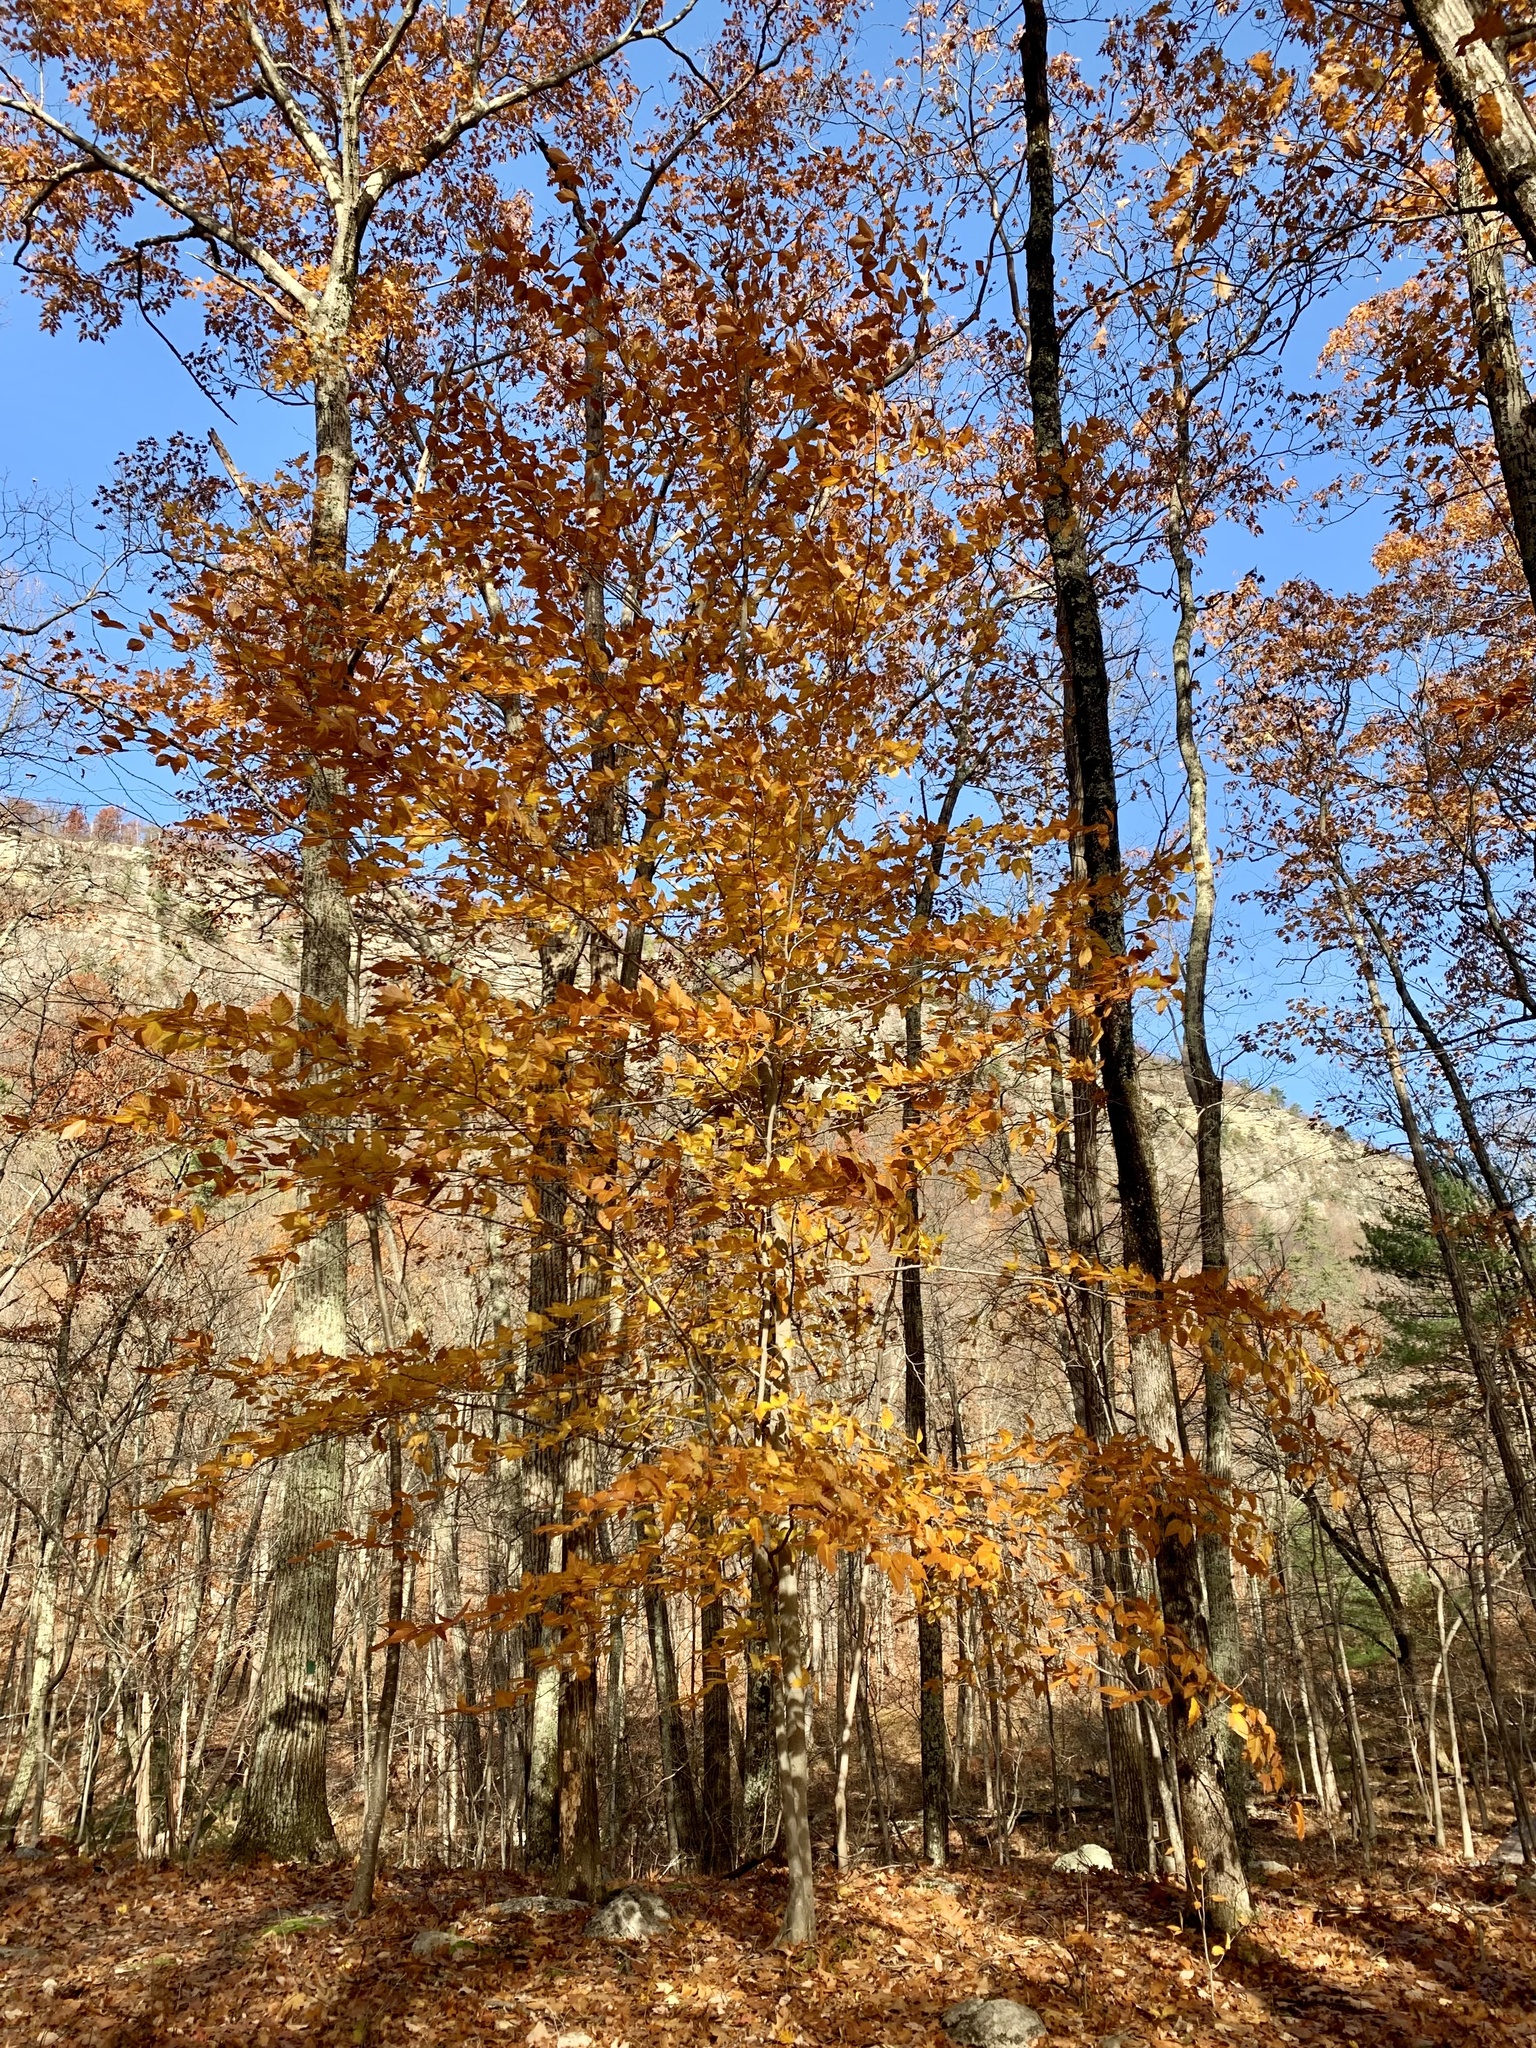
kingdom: Plantae
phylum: Tracheophyta
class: Magnoliopsida
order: Fagales
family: Fagaceae
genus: Fagus
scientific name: Fagus grandifolia
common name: American beech
